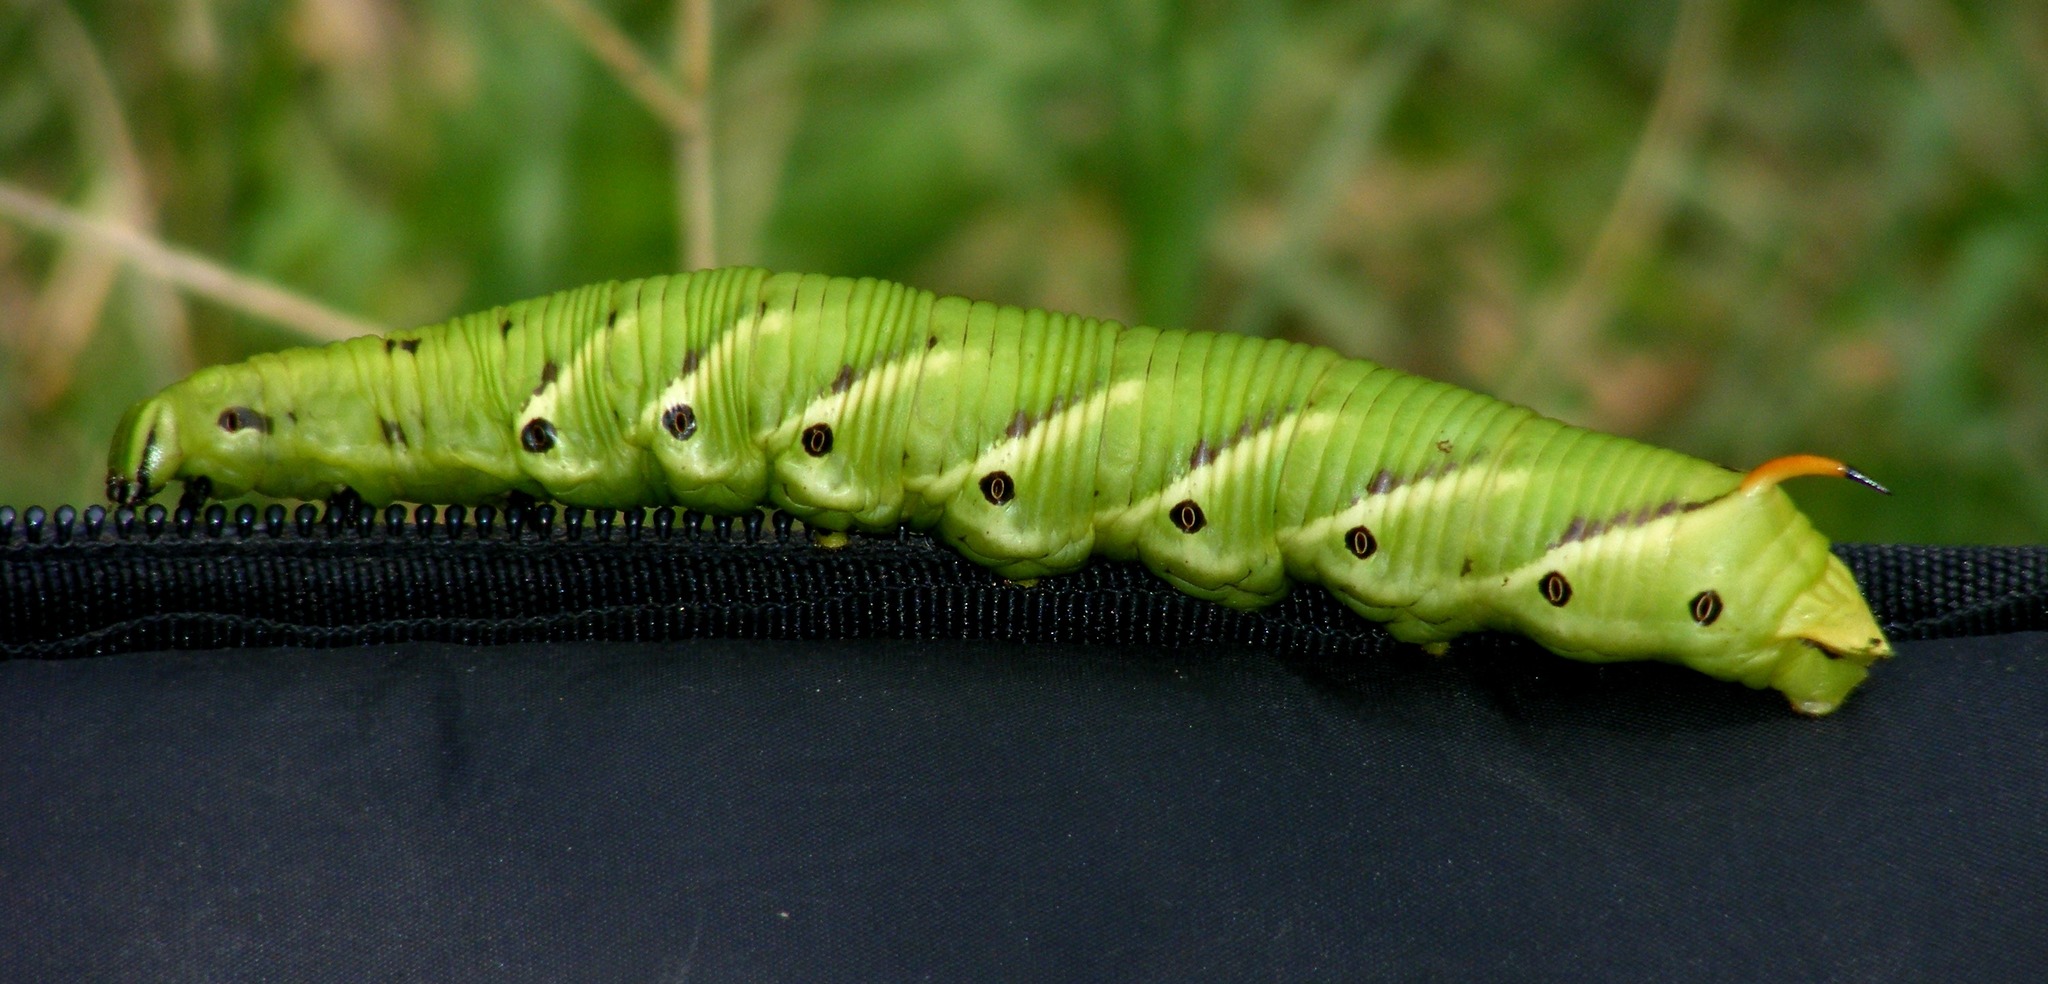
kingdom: Animalia
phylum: Arthropoda
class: Insecta
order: Lepidoptera
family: Sphingidae
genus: Agrius
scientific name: Agrius convolvuli
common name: Convolvulus hawkmoth
